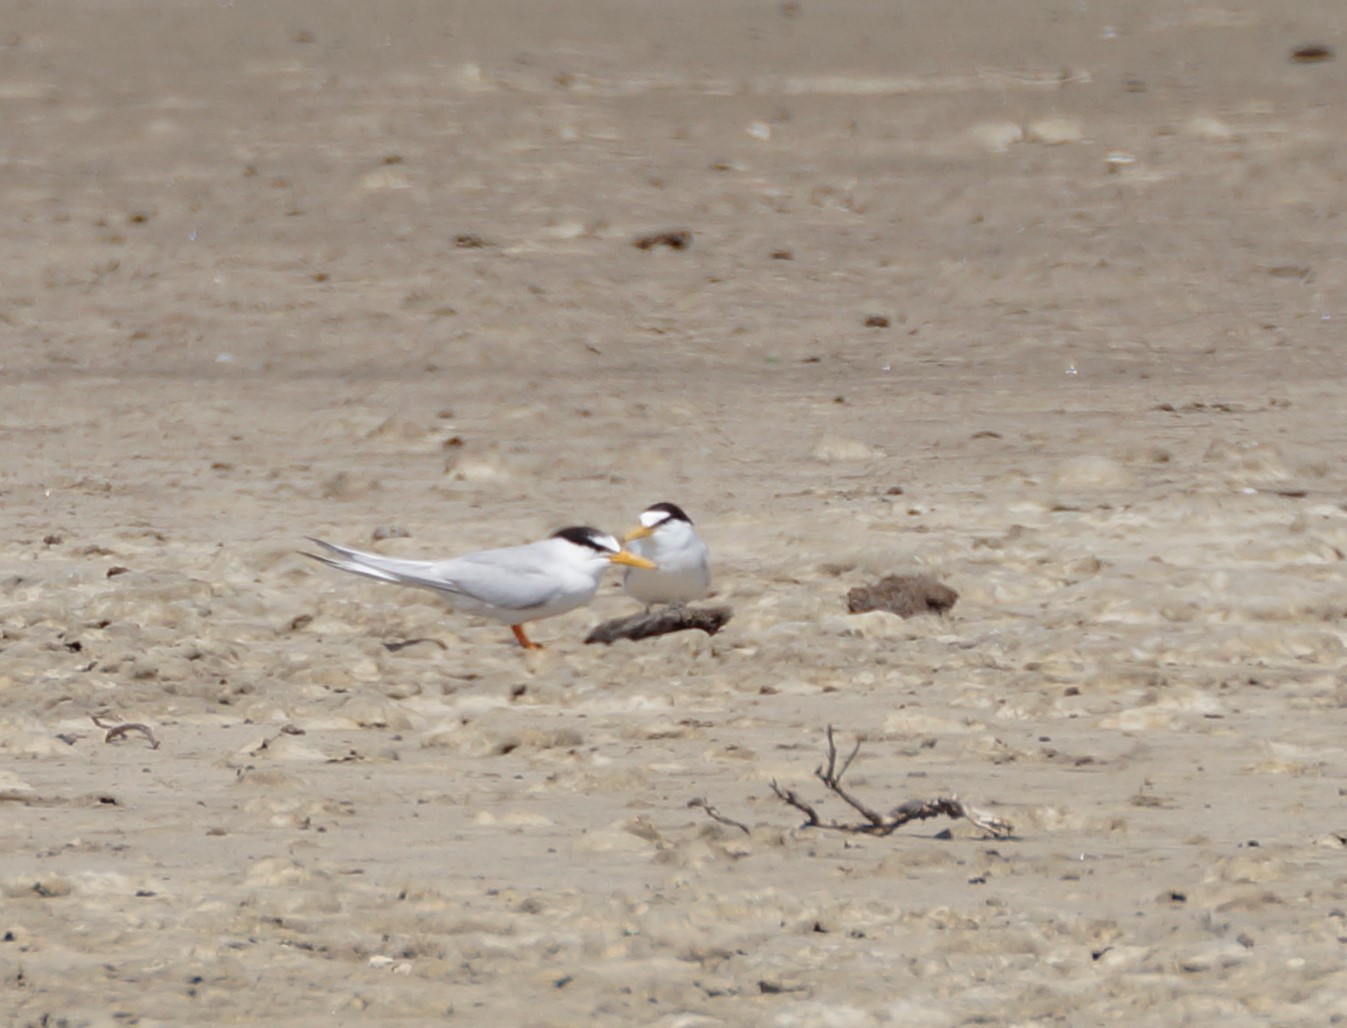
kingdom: Animalia
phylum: Chordata
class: Aves
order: Charadriiformes
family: Laridae
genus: Sternula
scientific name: Sternula albifrons
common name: Little tern
